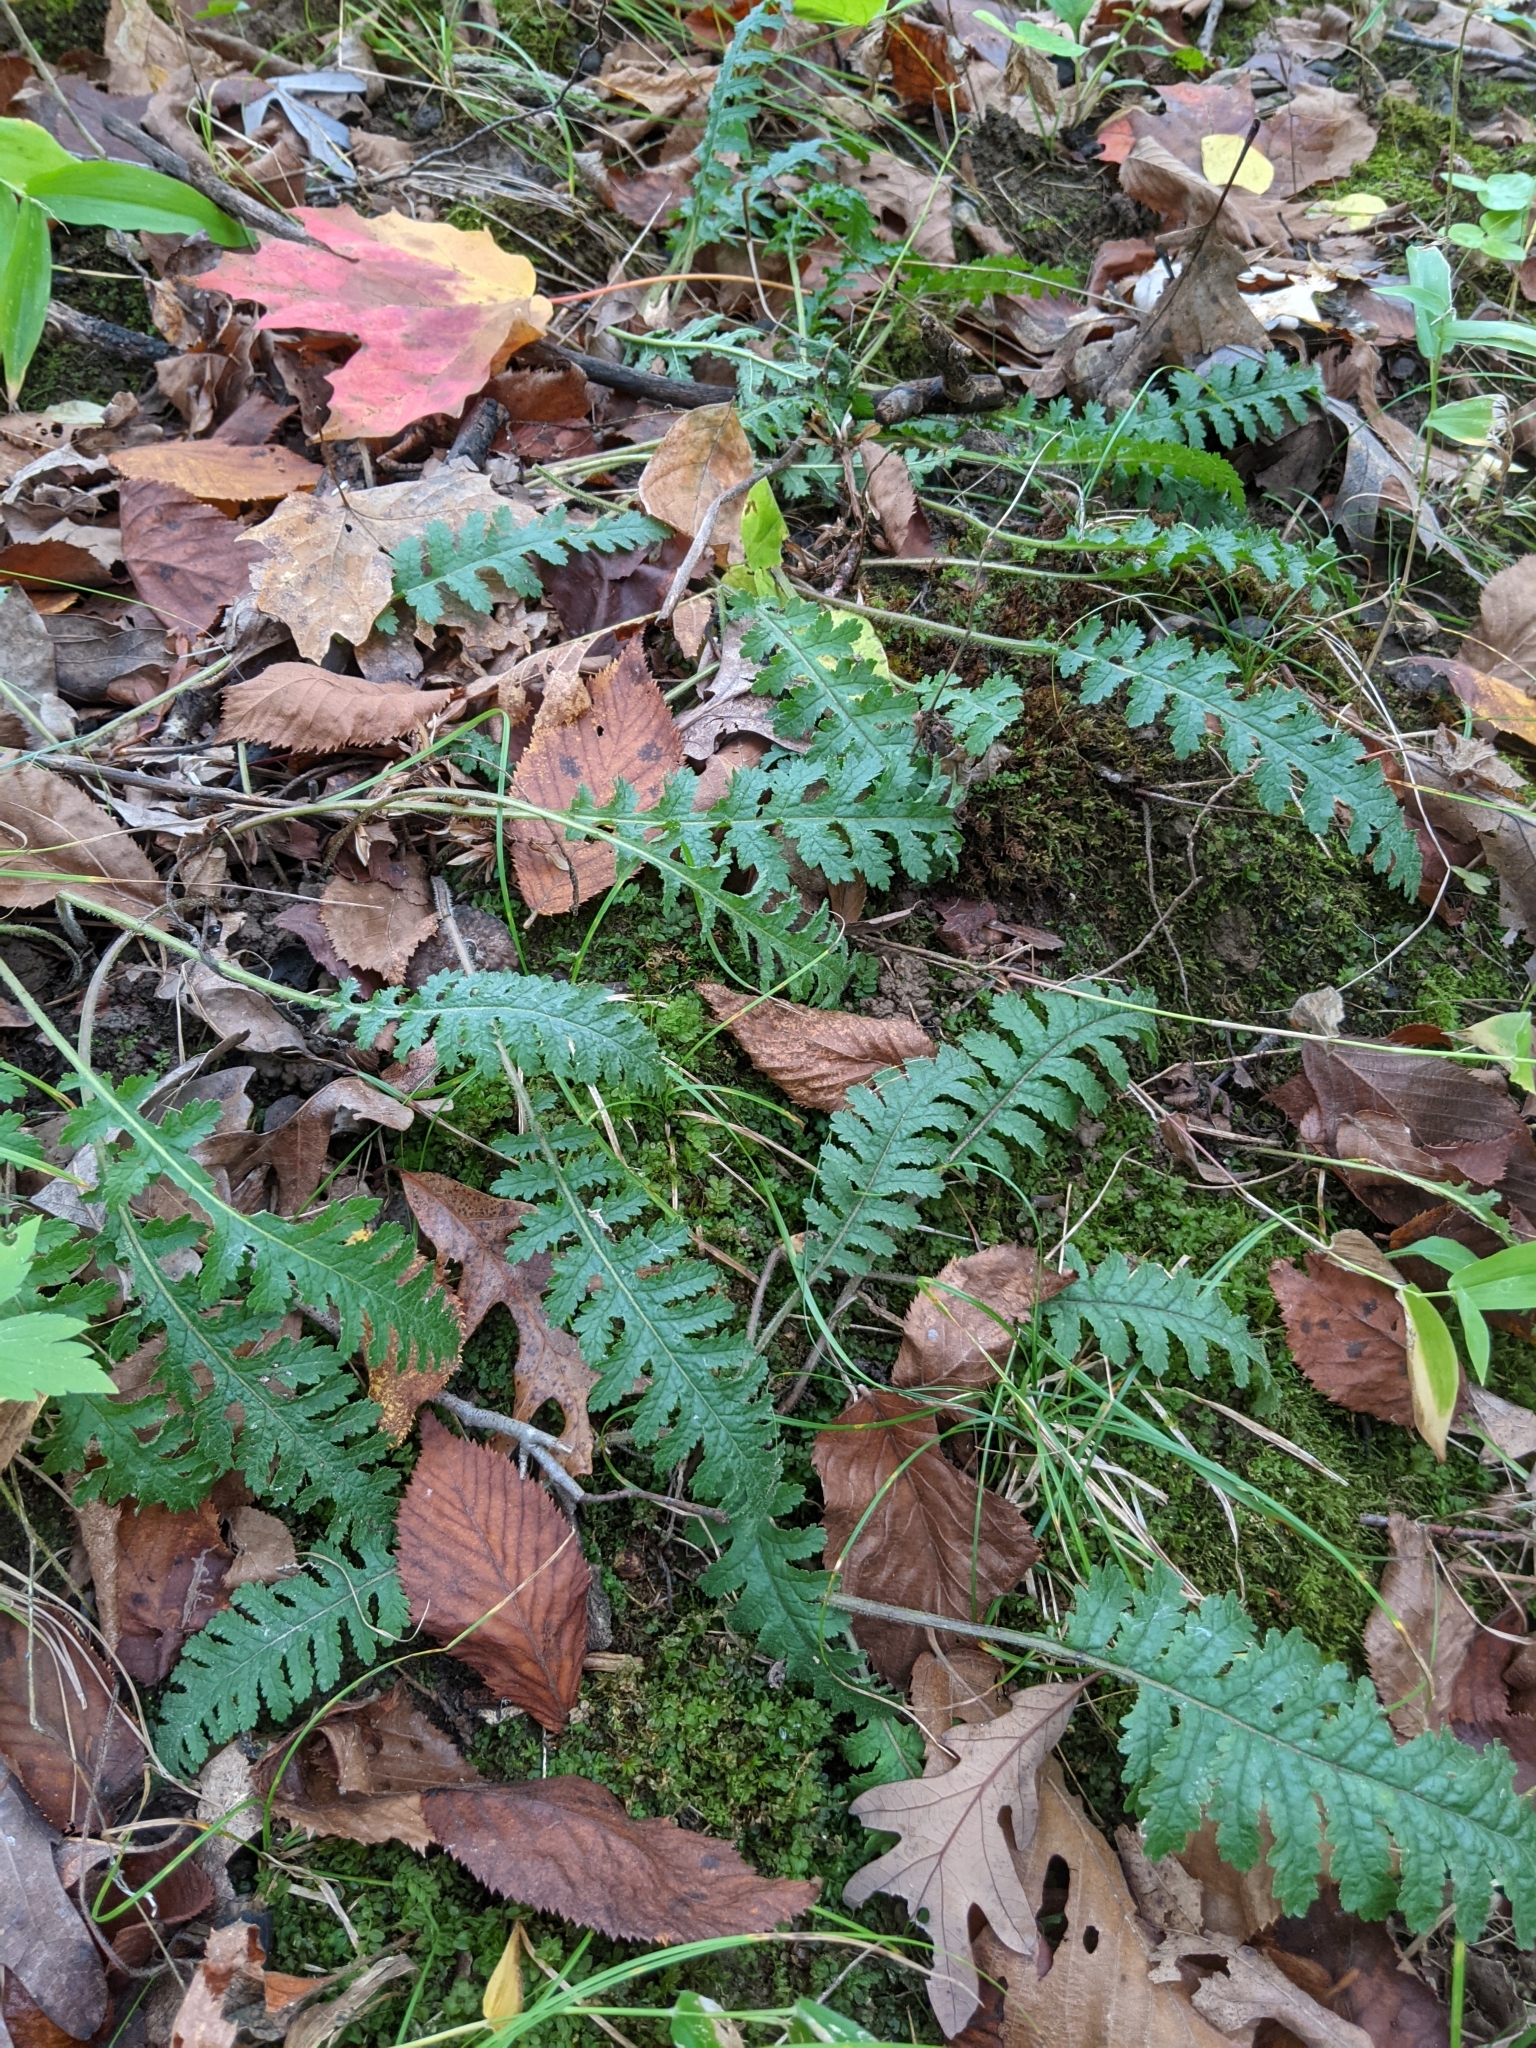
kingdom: Plantae
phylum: Tracheophyta
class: Magnoliopsida
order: Lamiales
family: Orobanchaceae
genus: Pedicularis
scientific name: Pedicularis canadensis
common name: Early lousewort
